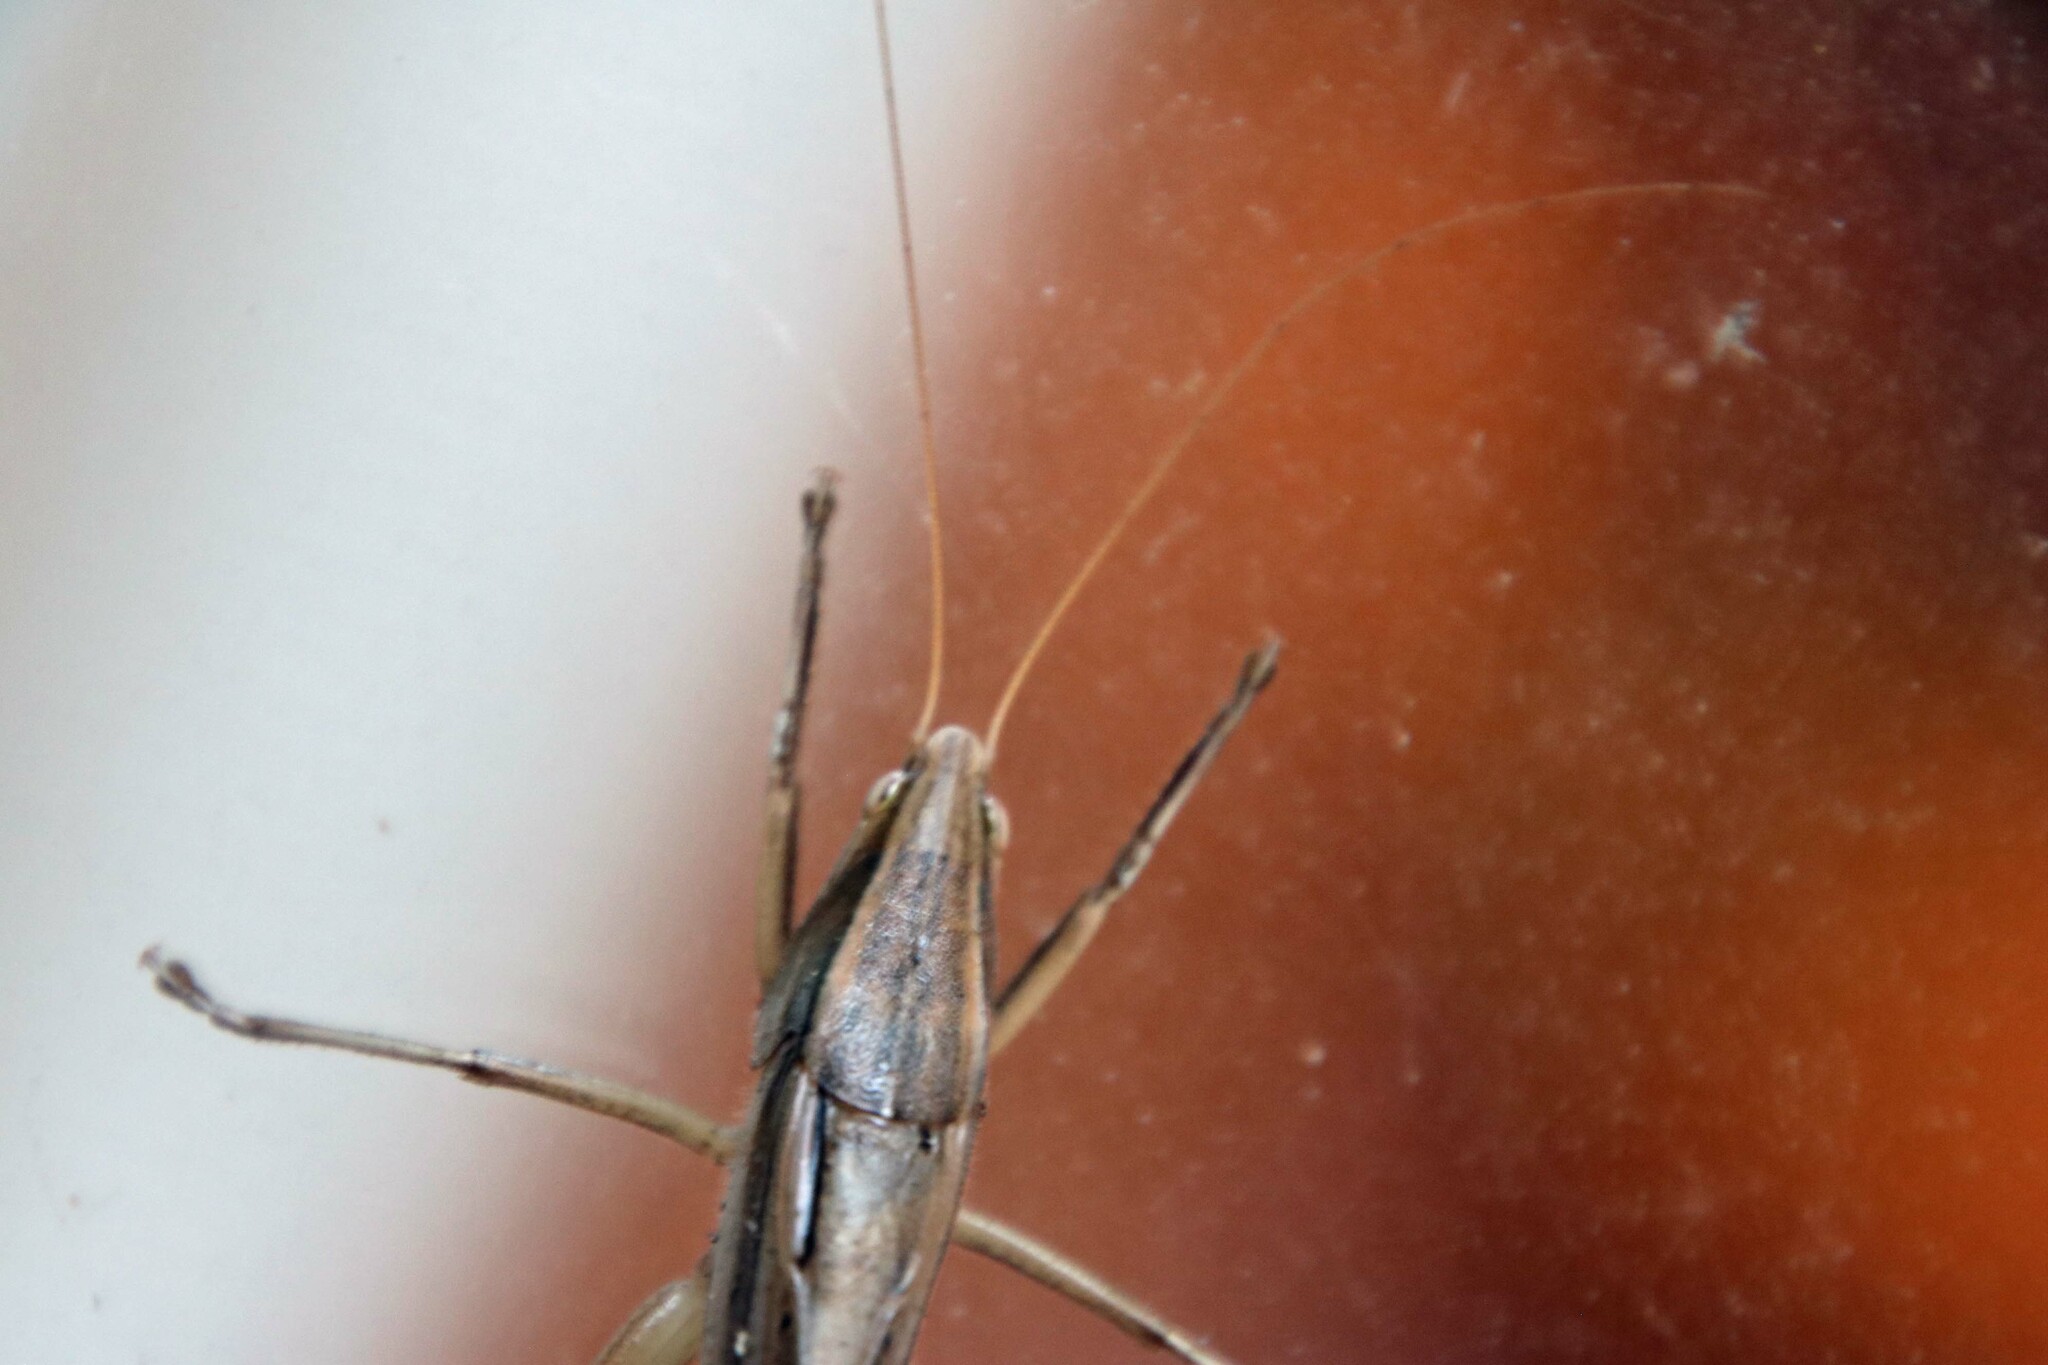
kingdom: Animalia
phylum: Arthropoda
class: Insecta
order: Orthoptera
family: Tettigoniidae
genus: Neoconocephalus
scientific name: Neoconocephalus triops
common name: Broad-tipped conehead
